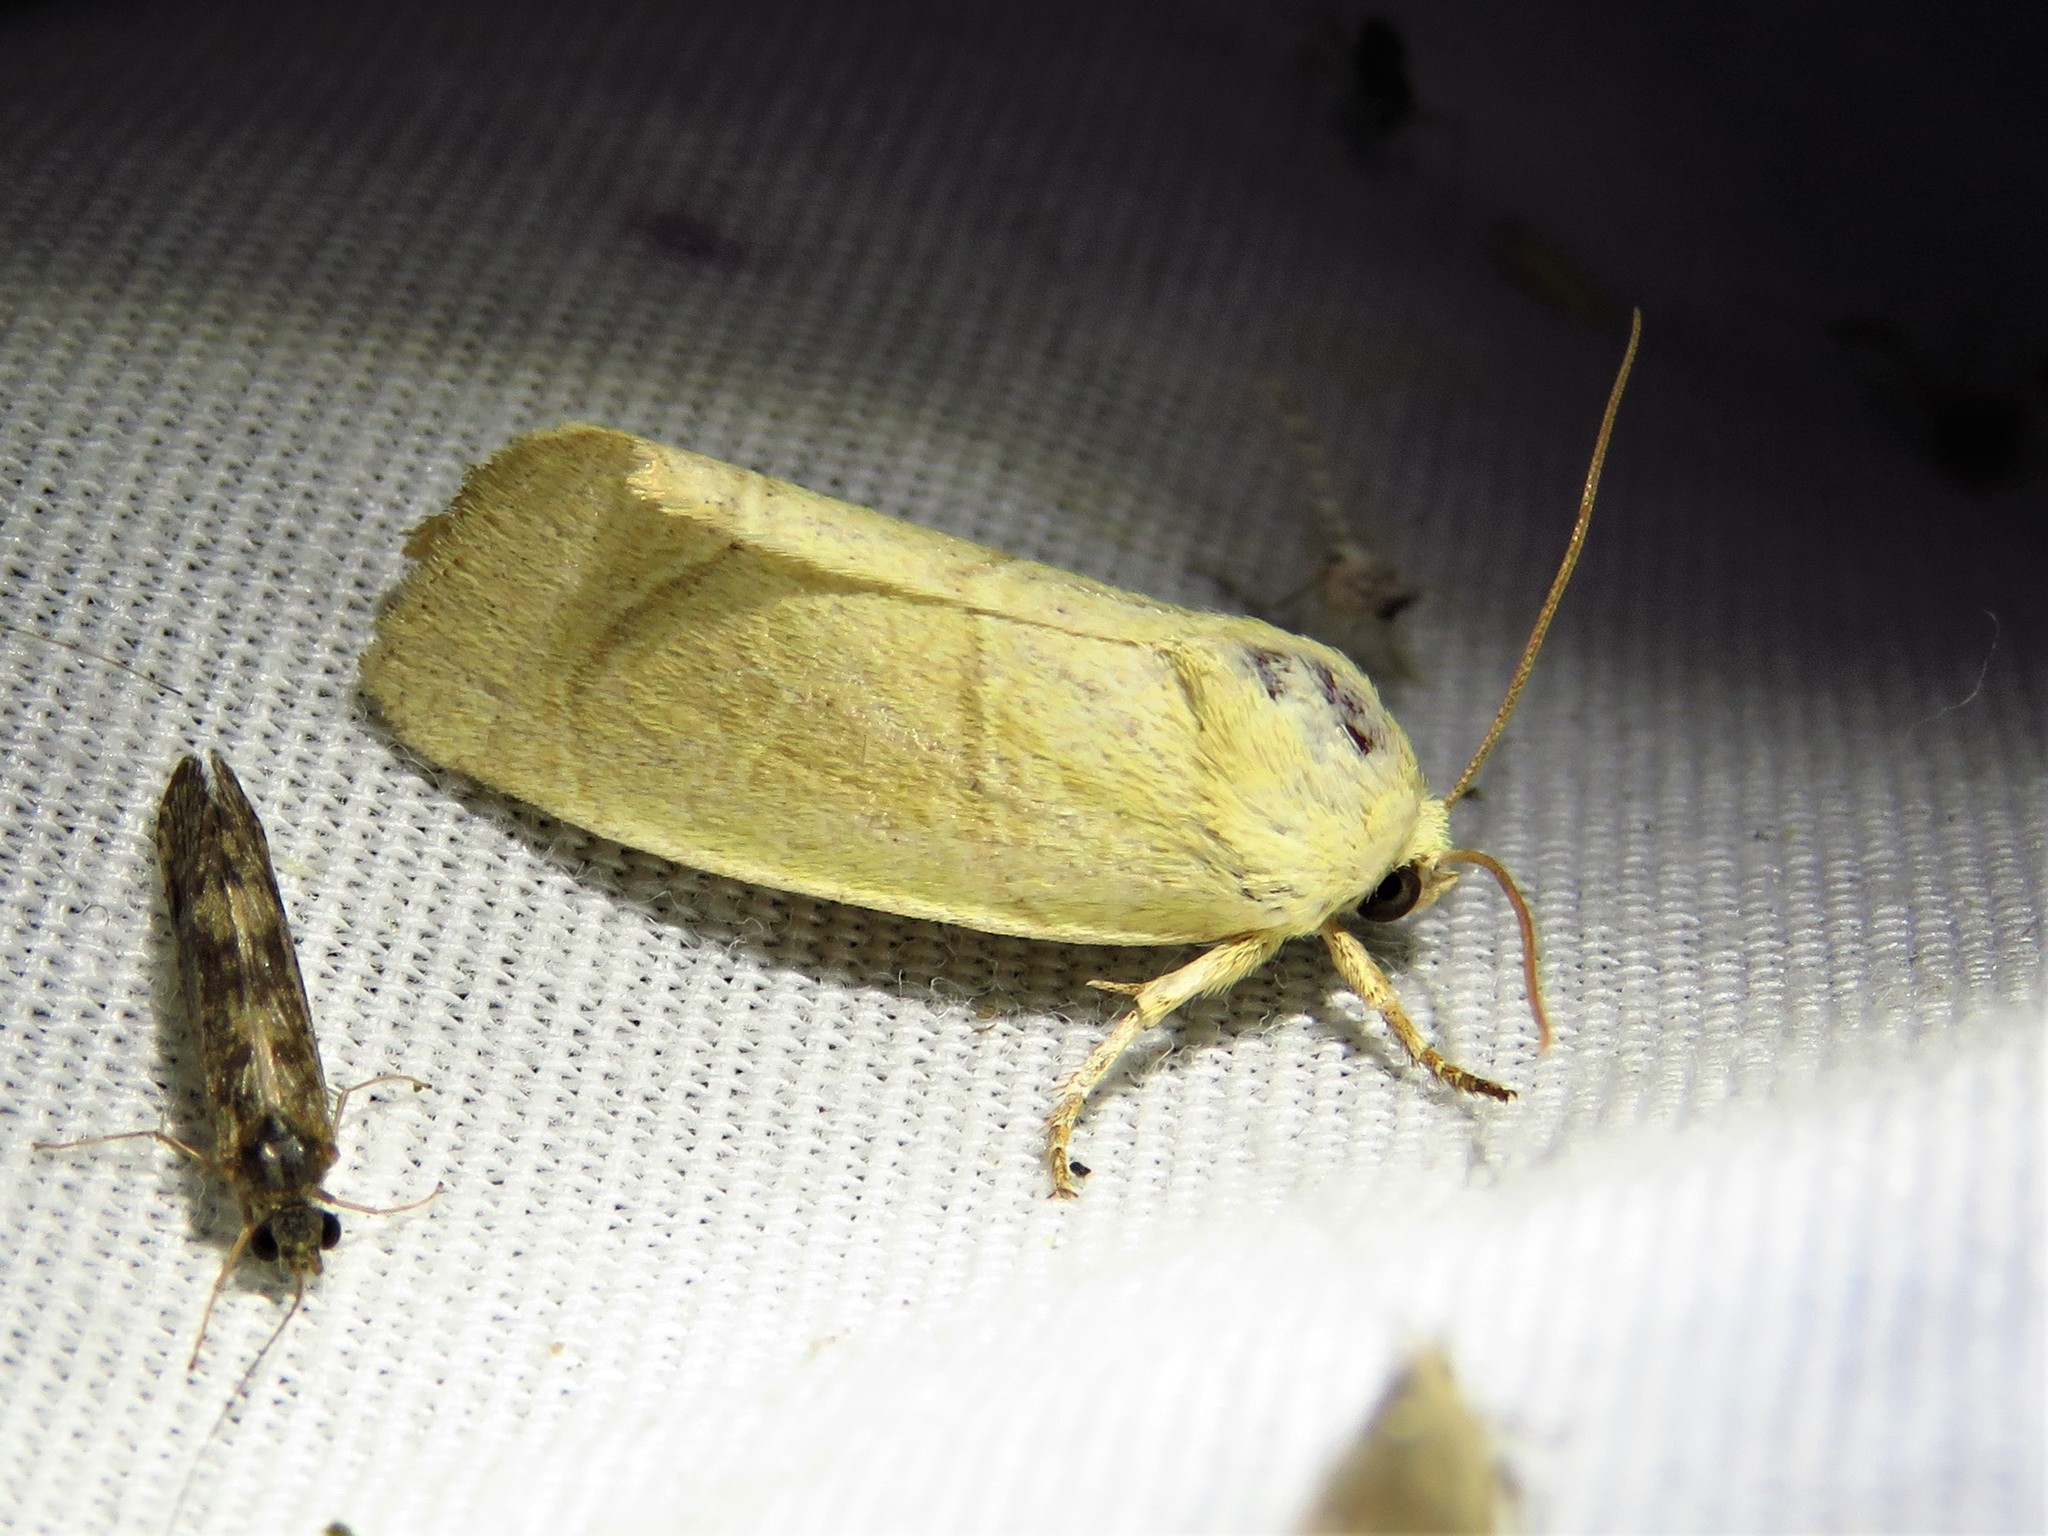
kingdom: Animalia
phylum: Arthropoda
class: Insecta
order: Lepidoptera
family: Noctuidae
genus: Cosmia
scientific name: Cosmia calami
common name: American dun-bar moth
